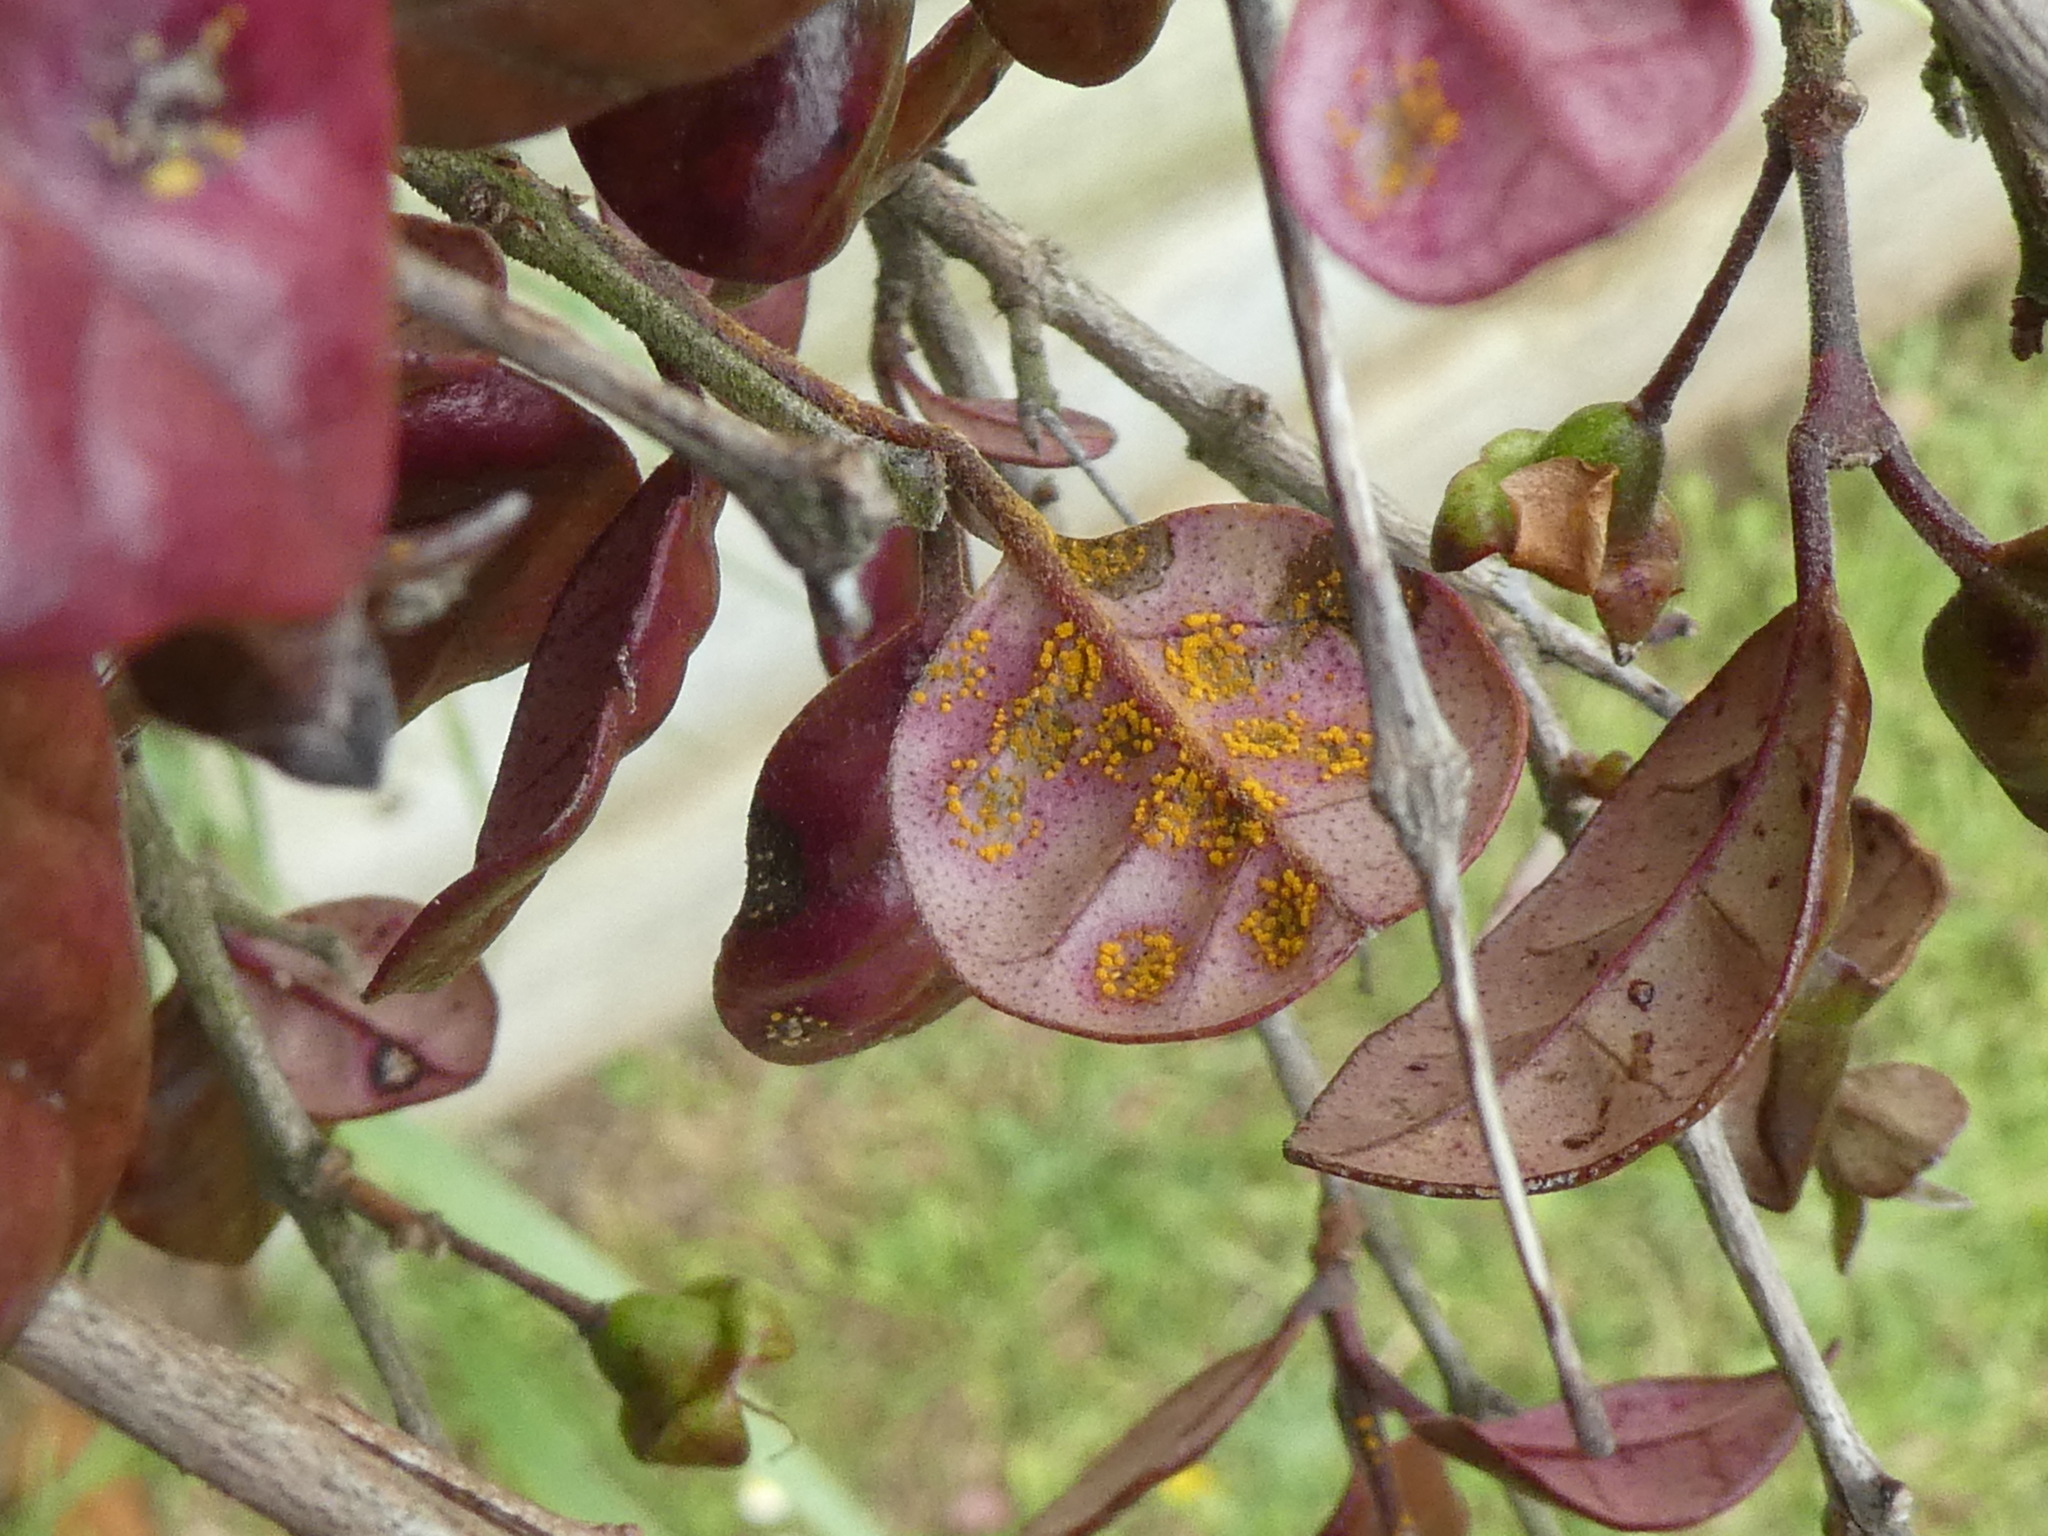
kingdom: Fungi
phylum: Basidiomycota
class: Pucciniomycetes
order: Pucciniales
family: Sphaerophragmiaceae
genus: Austropuccinia
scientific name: Austropuccinia psidii
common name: Myrtle rust
